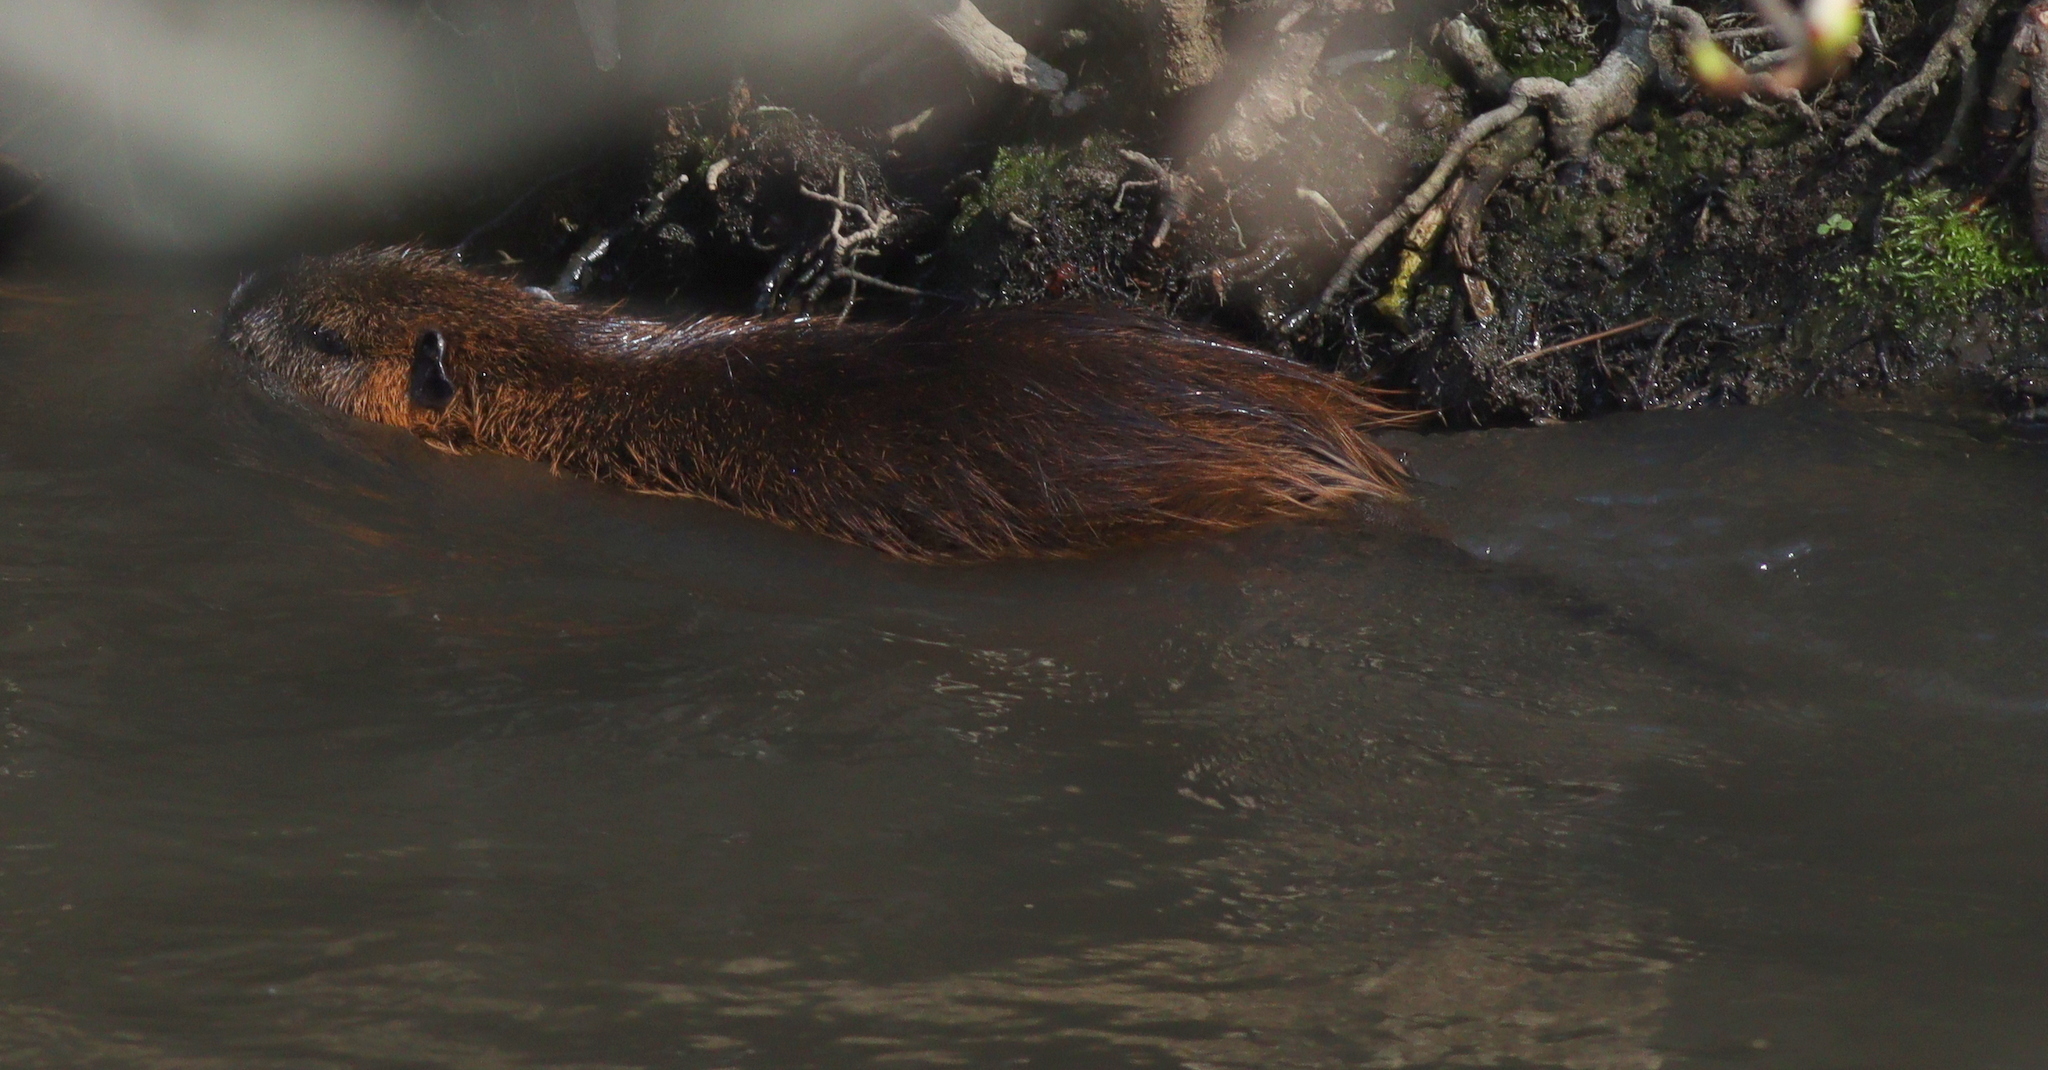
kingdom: Animalia
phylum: Chordata
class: Mammalia
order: Rodentia
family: Myocastoridae
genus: Myocastor
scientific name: Myocastor coypus
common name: Coypu
